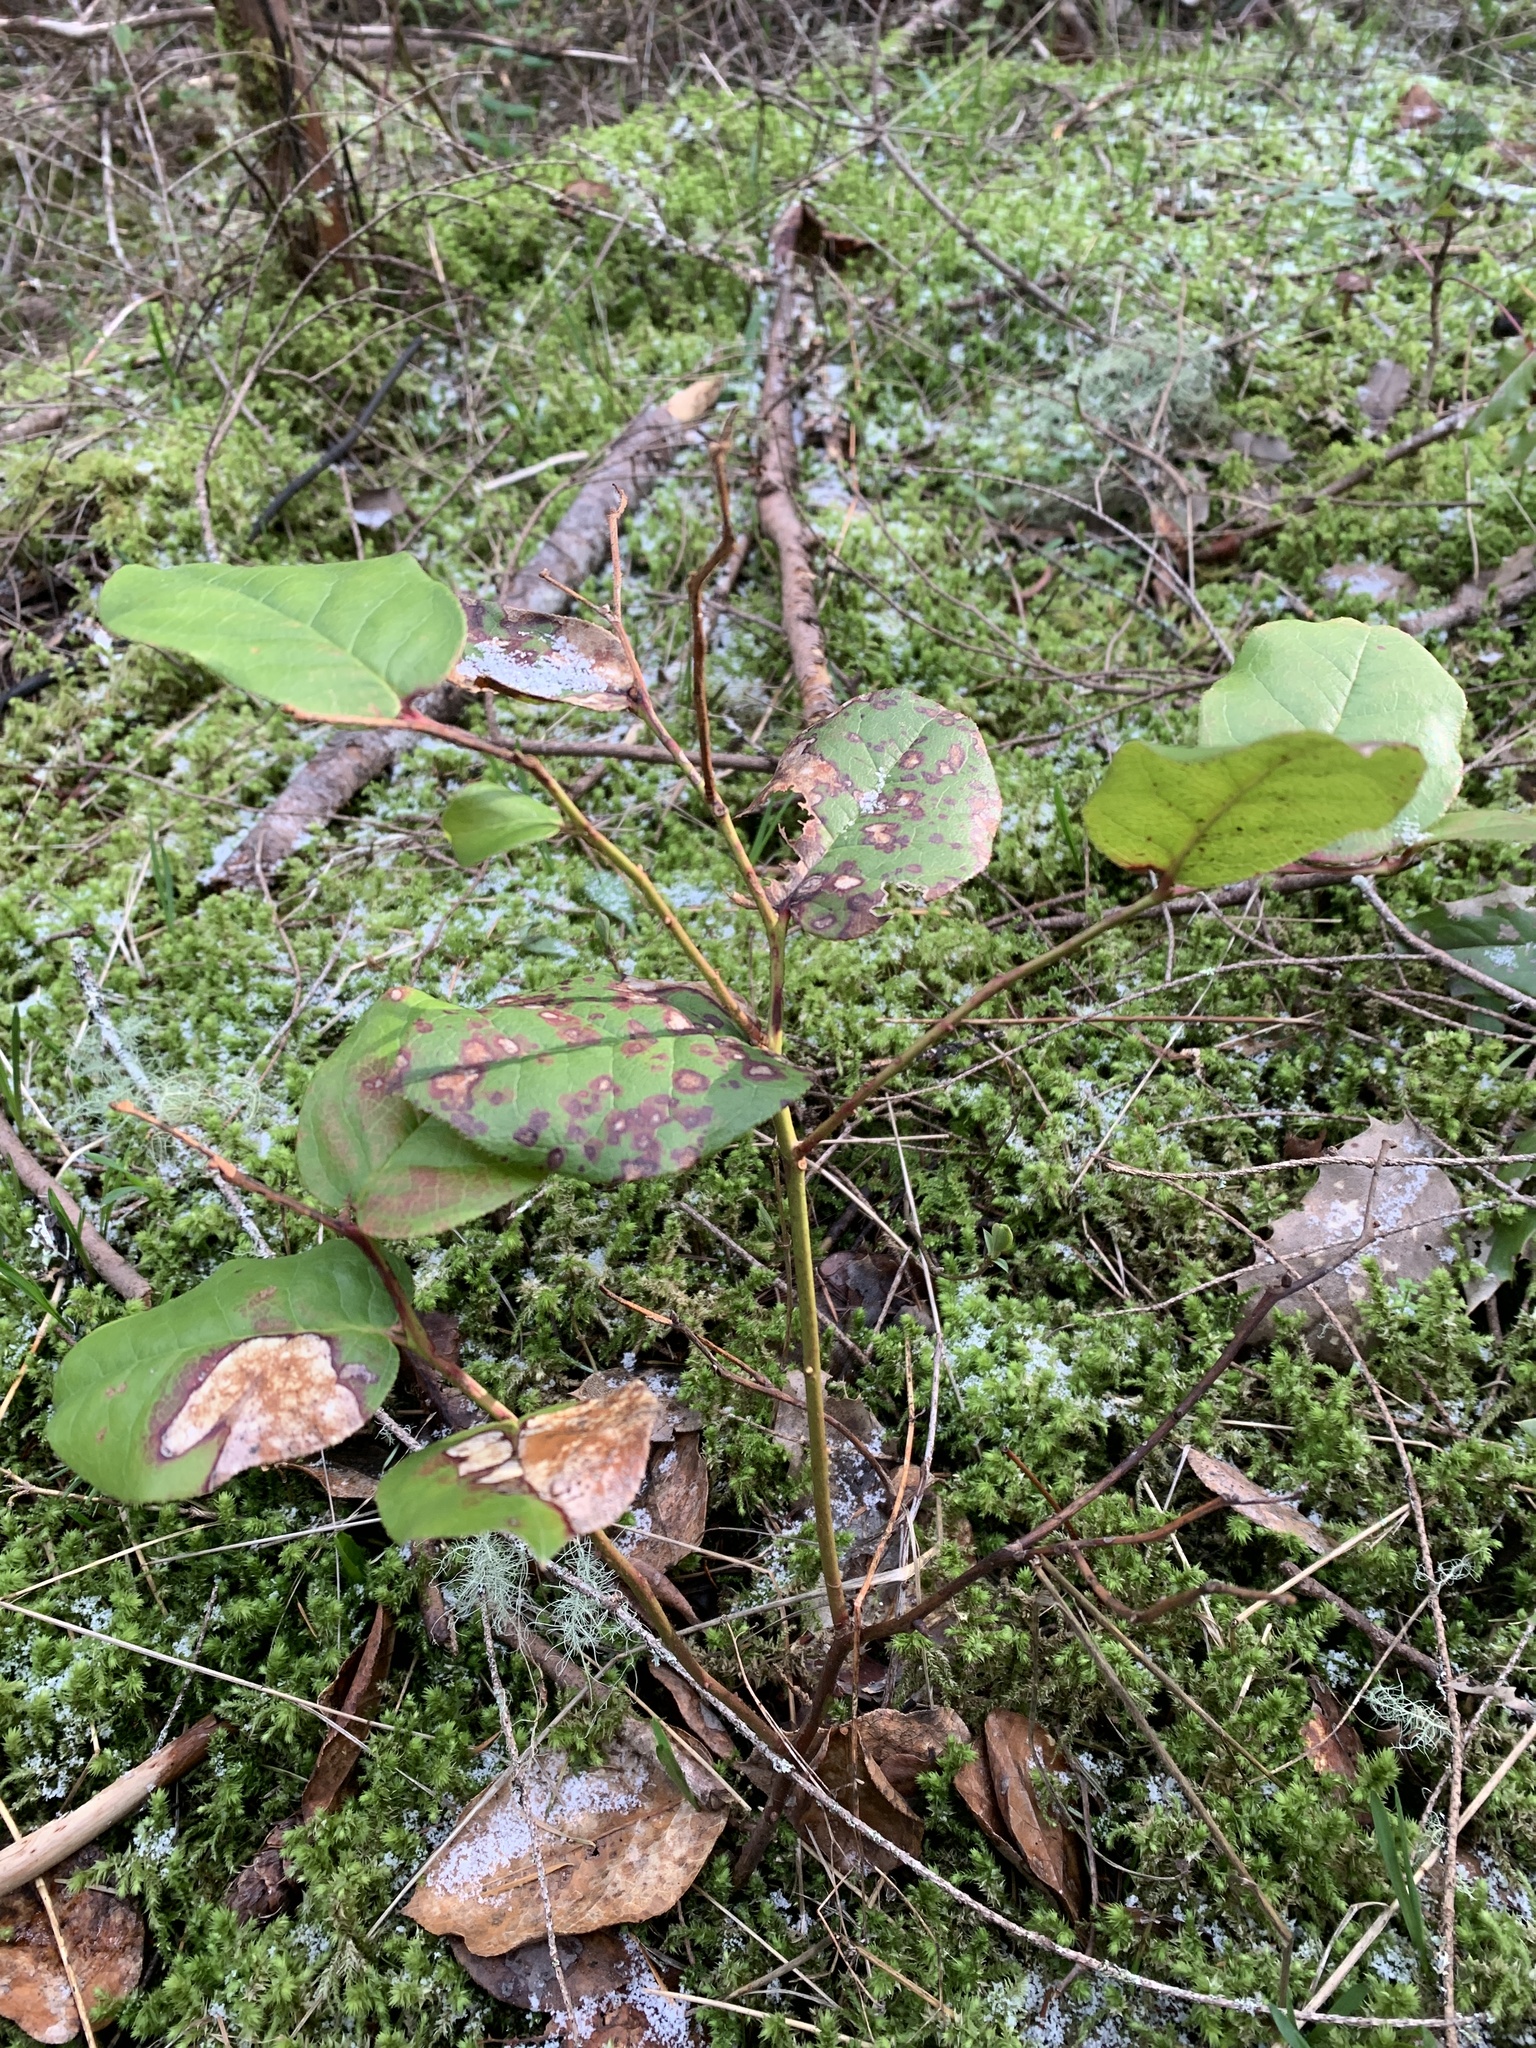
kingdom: Plantae
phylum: Tracheophyta
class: Magnoliopsida
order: Ericales
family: Ericaceae
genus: Gaultheria
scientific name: Gaultheria shallon
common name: Shallon
